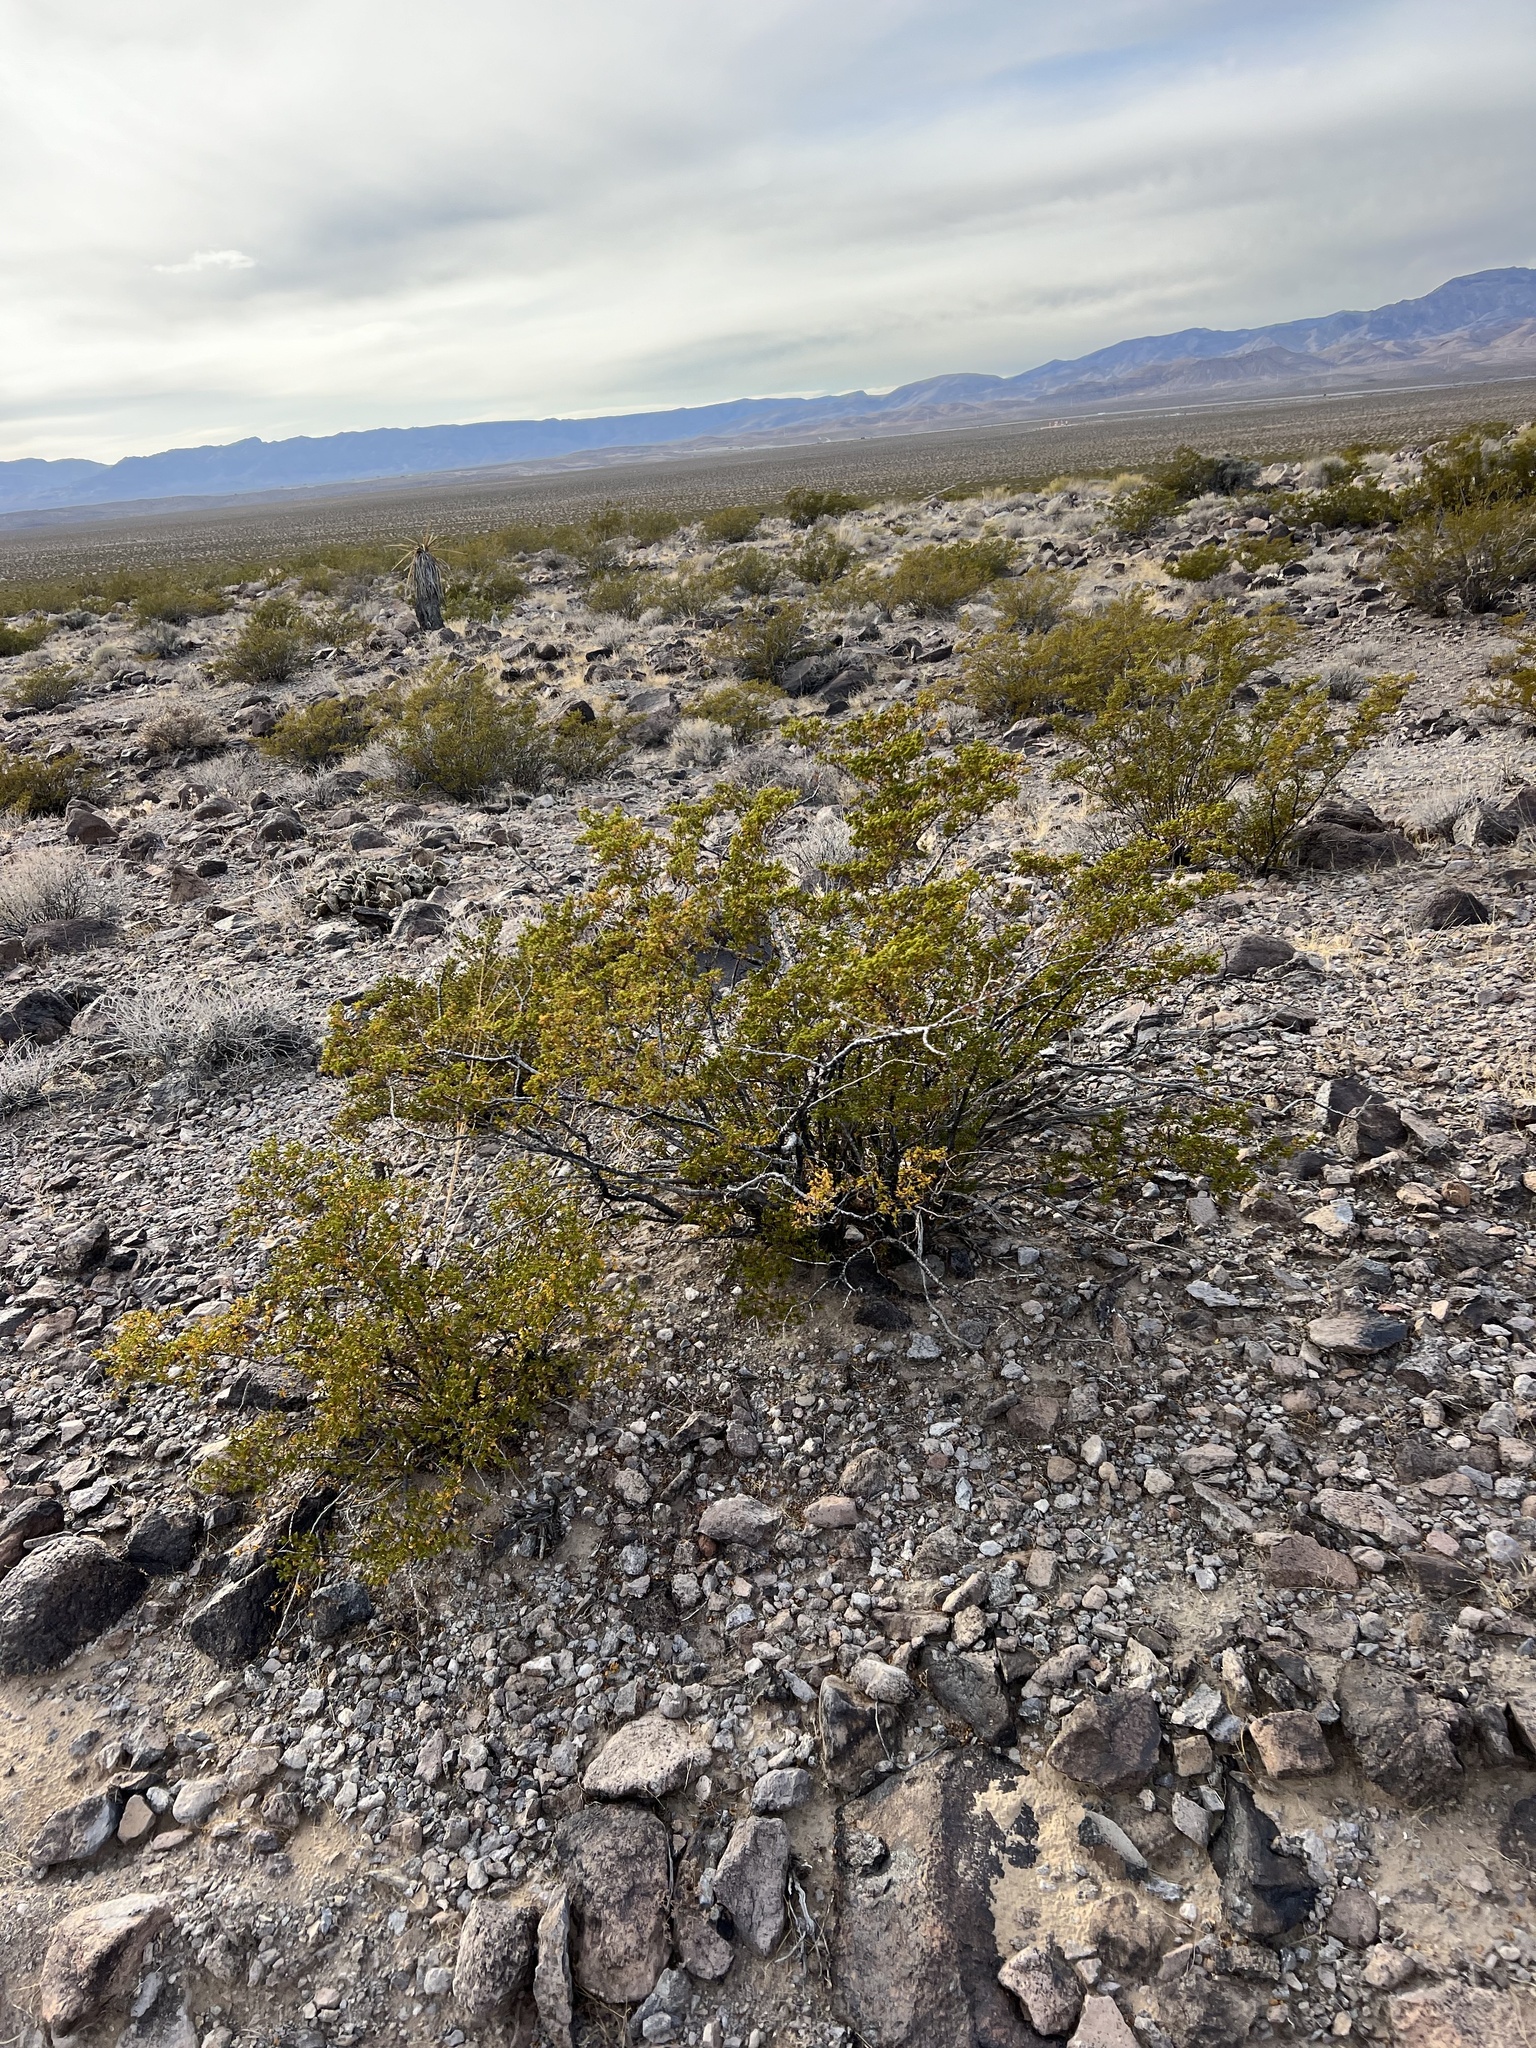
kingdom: Plantae
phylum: Tracheophyta
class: Magnoliopsida
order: Zygophyllales
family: Zygophyllaceae
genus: Larrea
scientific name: Larrea tridentata
